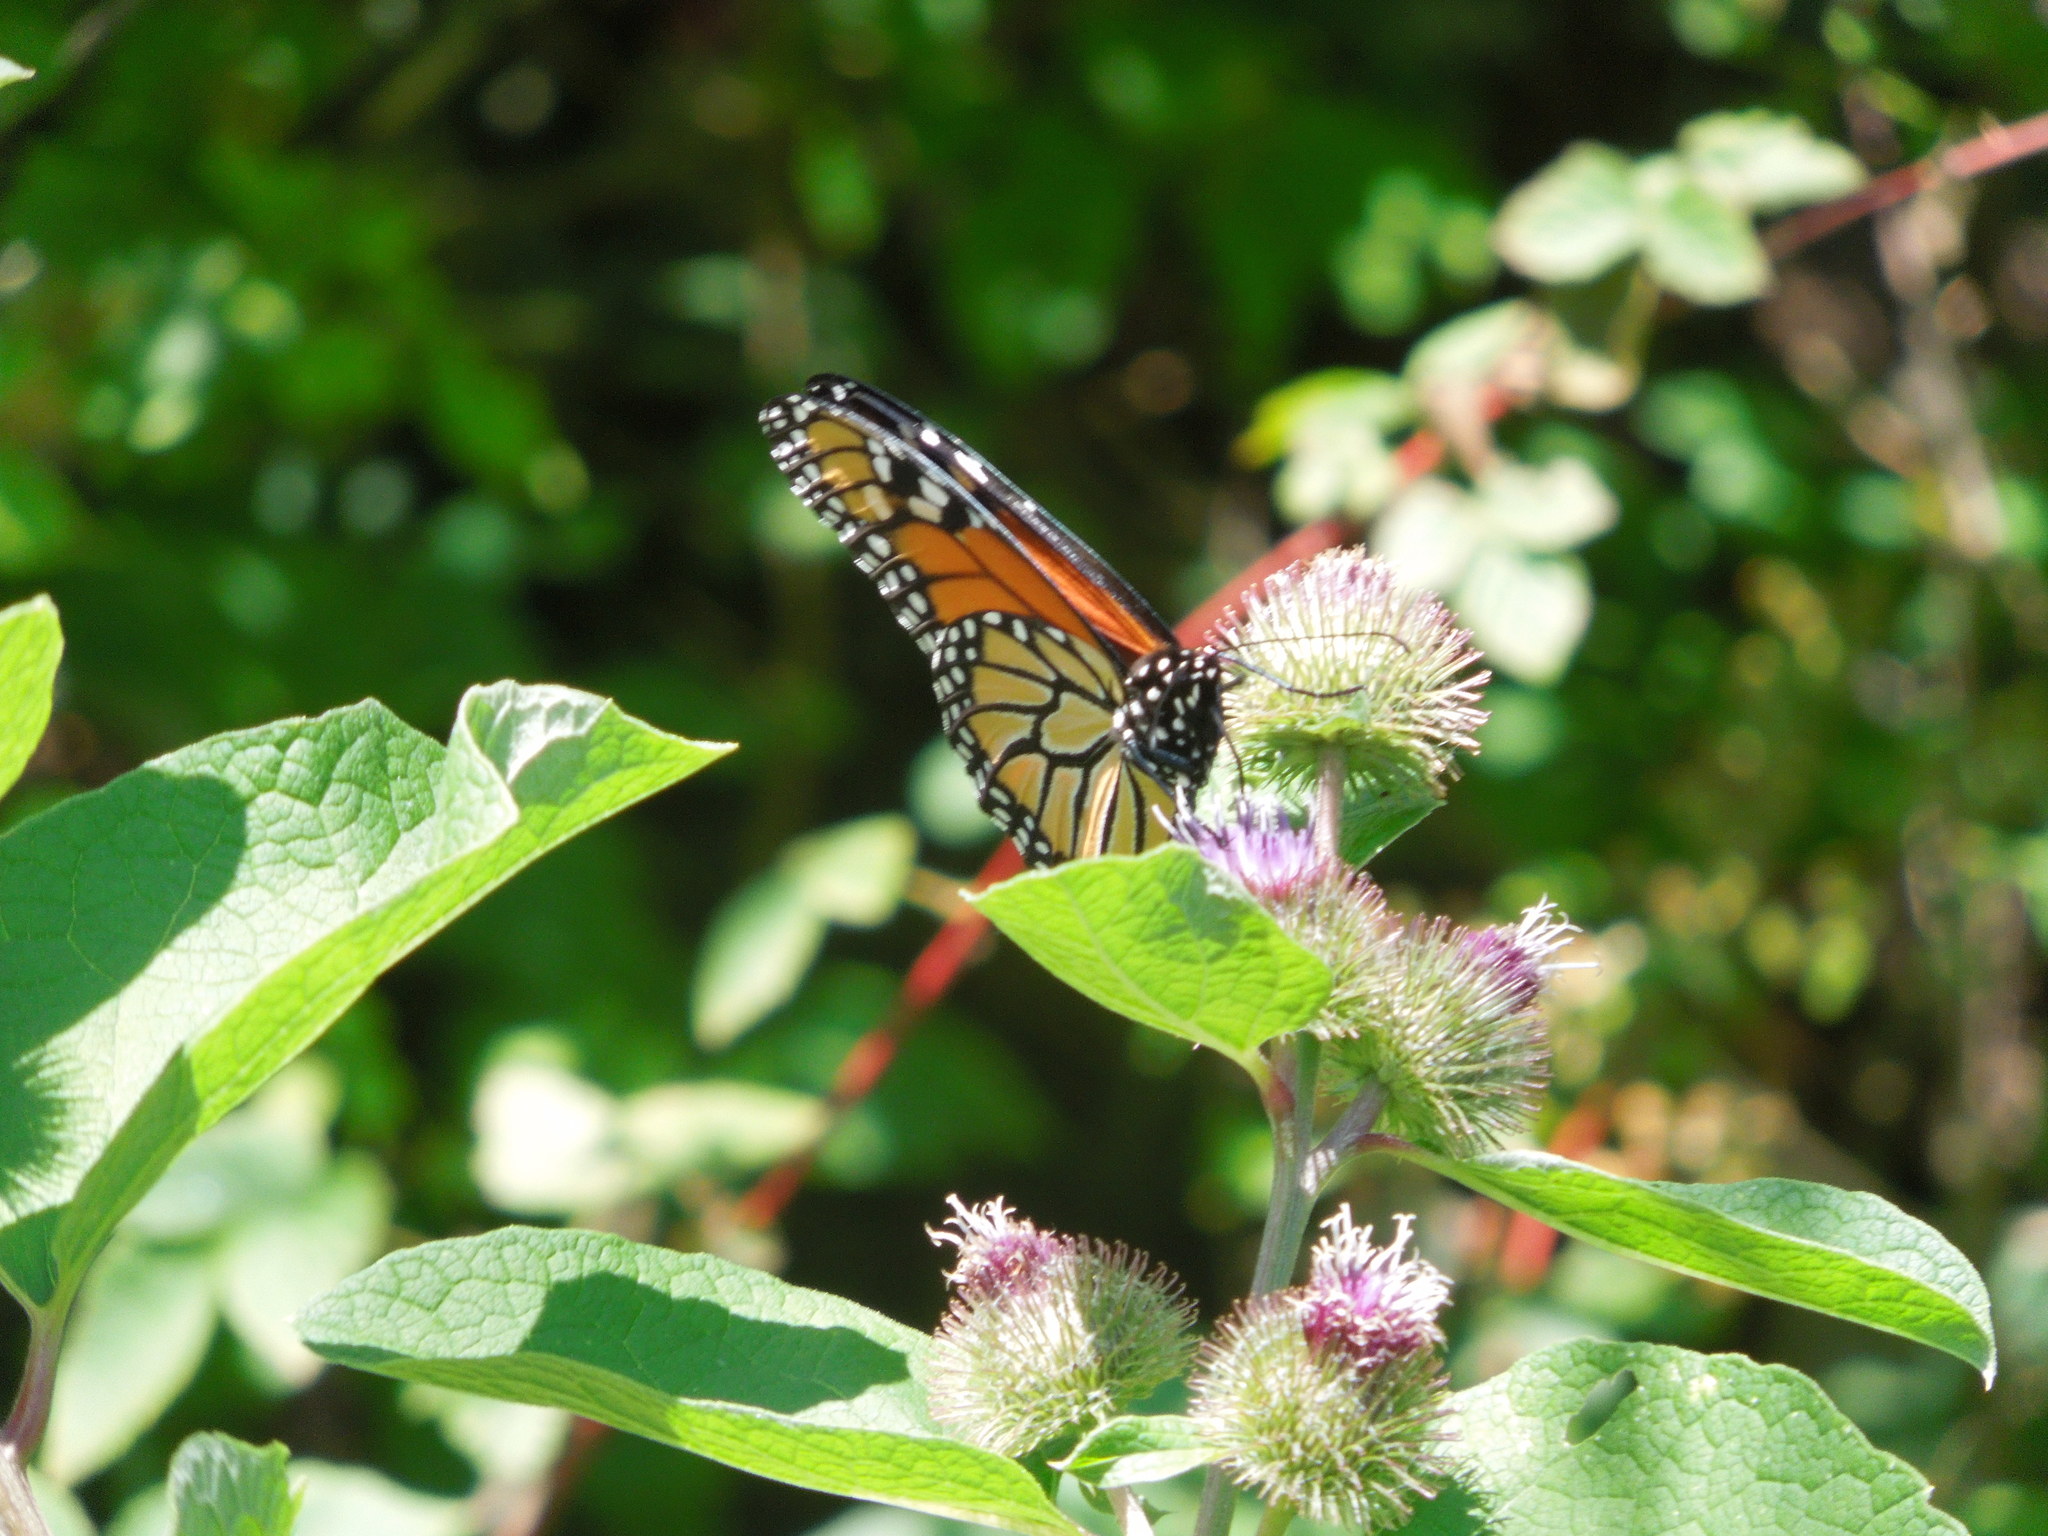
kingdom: Animalia
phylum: Arthropoda
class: Insecta
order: Lepidoptera
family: Nymphalidae
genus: Danaus
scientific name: Danaus plexippus
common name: Monarch
